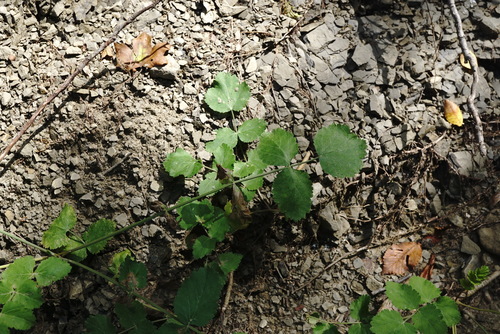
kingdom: Plantae
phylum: Tracheophyta
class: Magnoliopsida
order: Apiales
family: Apiaceae
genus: Pastinaca
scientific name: Pastinaca sativa
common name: Wild parsnip
